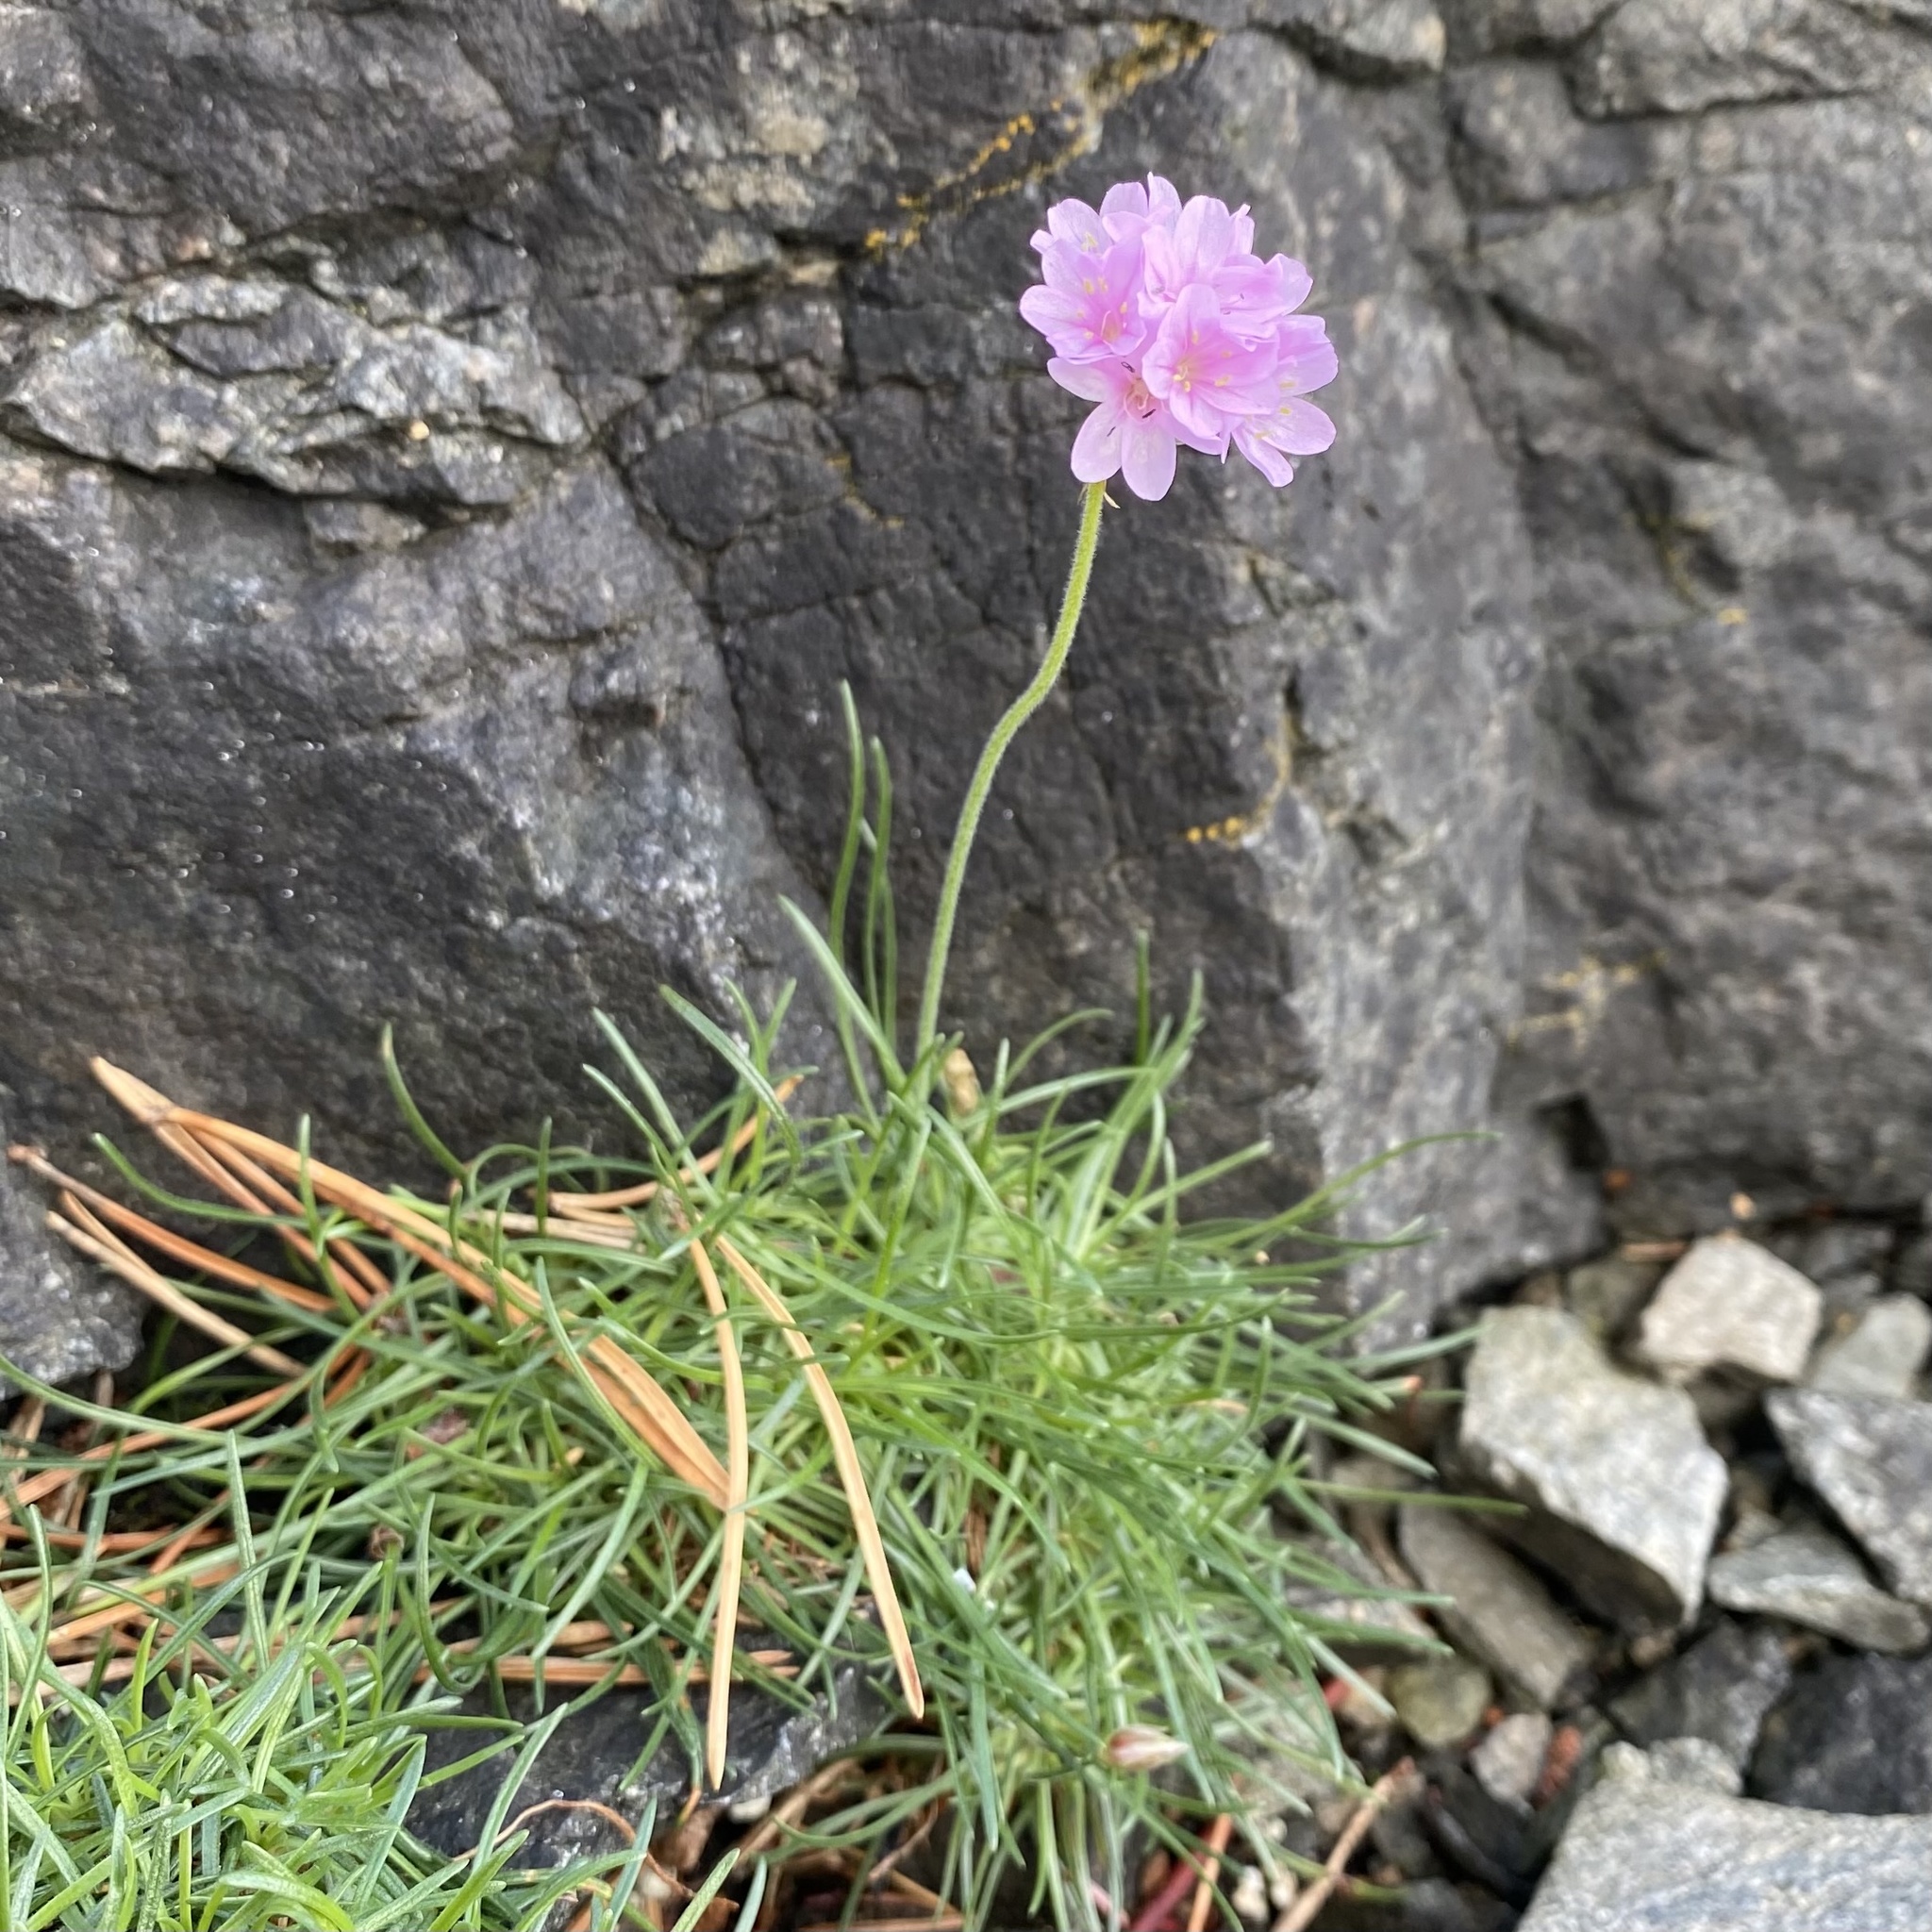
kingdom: Plantae
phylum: Tracheophyta
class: Magnoliopsida
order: Caryophyllales
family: Plumbaginaceae
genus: Armeria
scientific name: Armeria maritima
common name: Thrift
